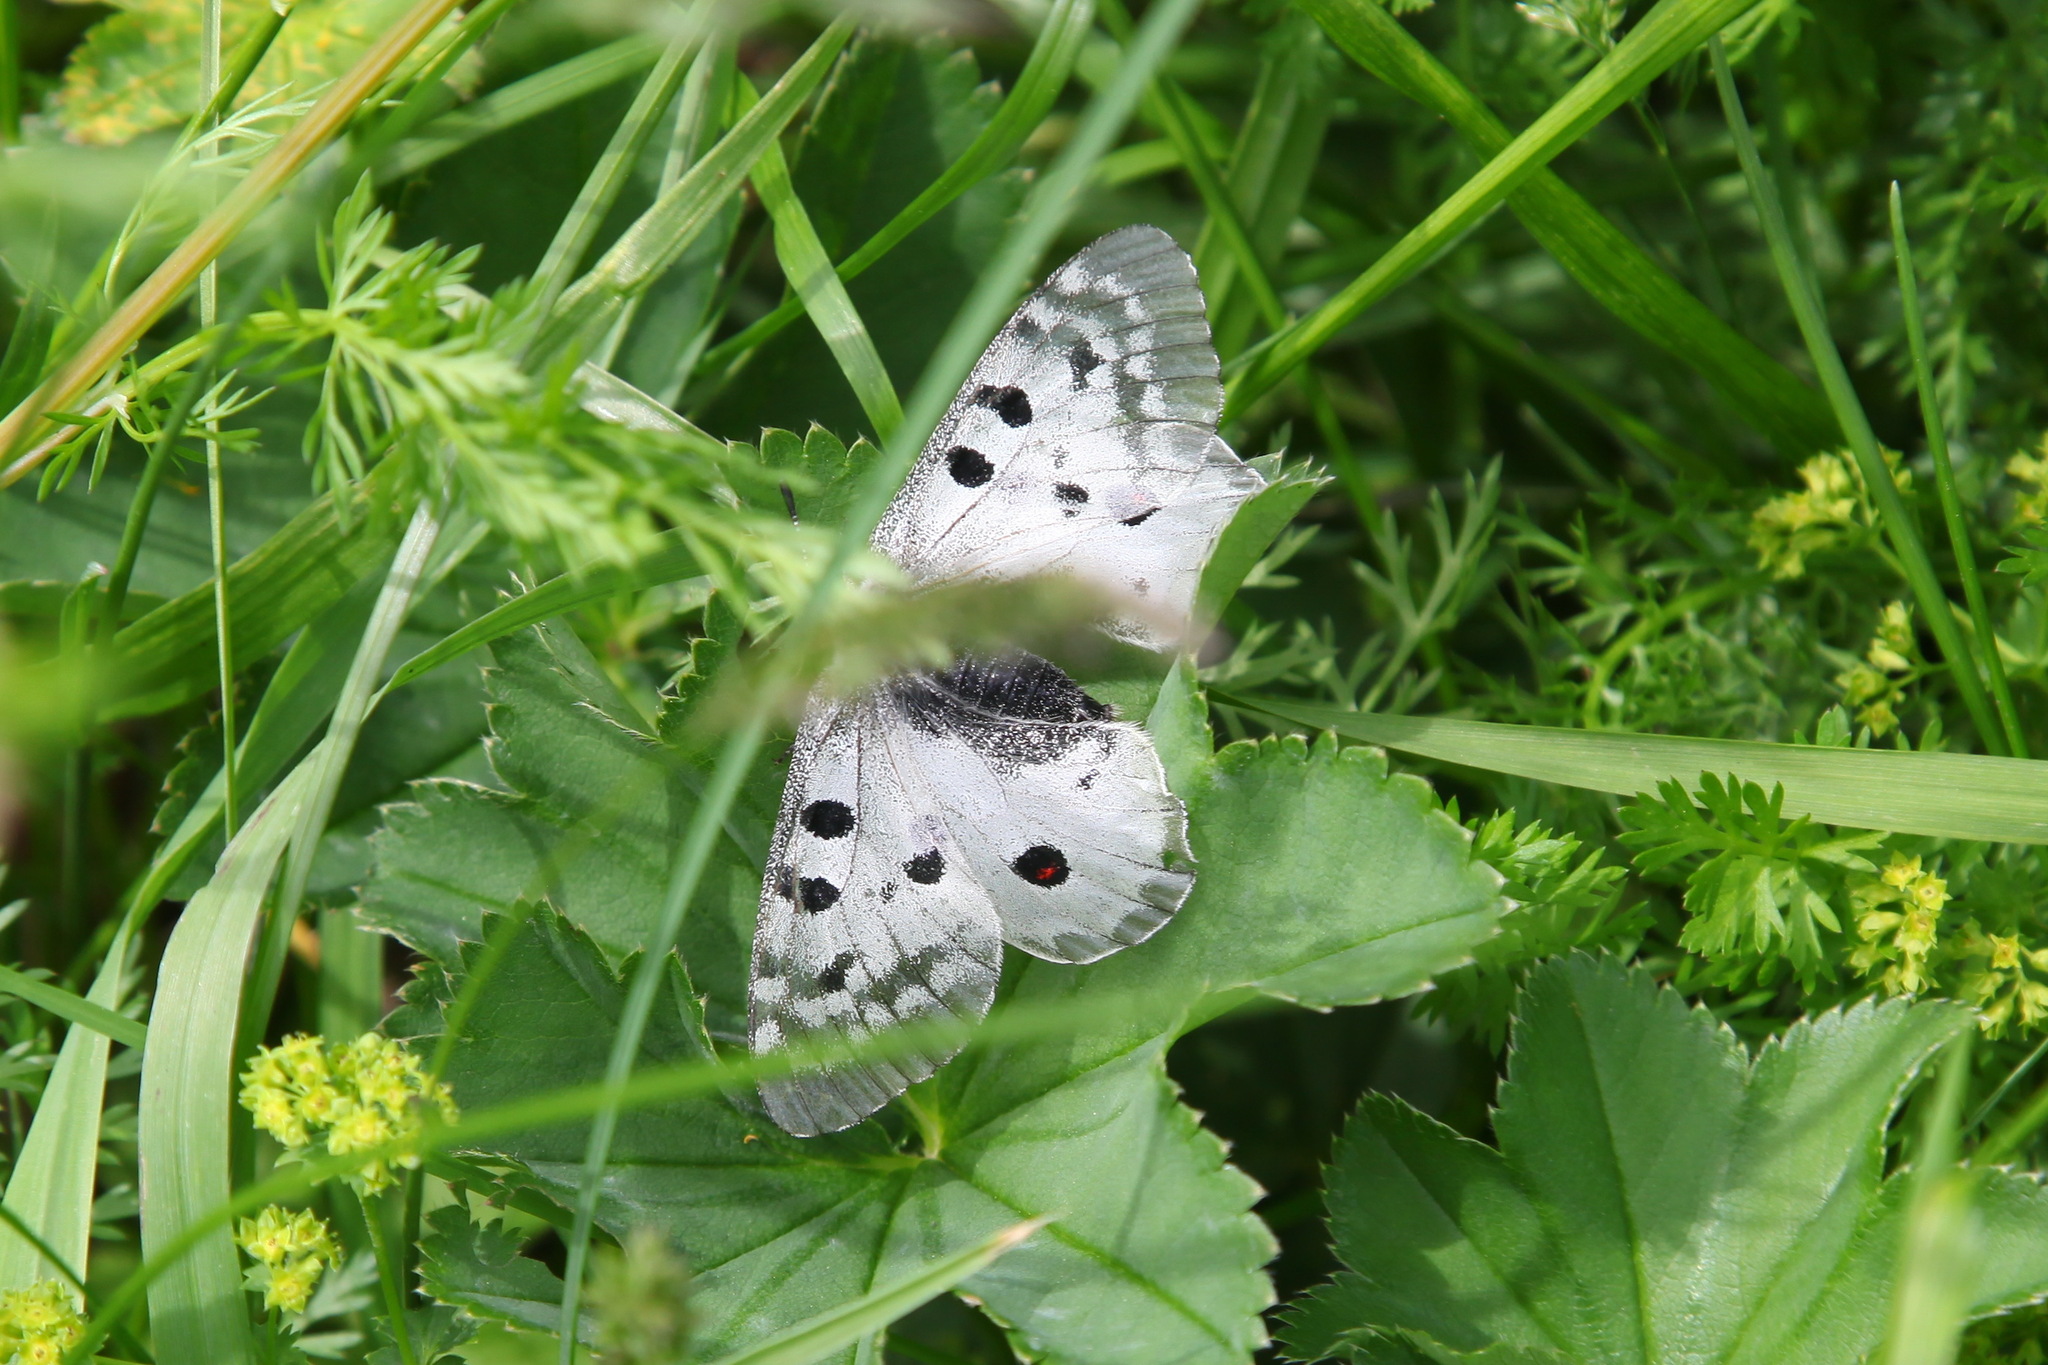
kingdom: Animalia
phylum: Arthropoda
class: Insecta
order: Lepidoptera
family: Papilionidae
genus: Parnassius
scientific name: Parnassius phoebus
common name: Small apollo
